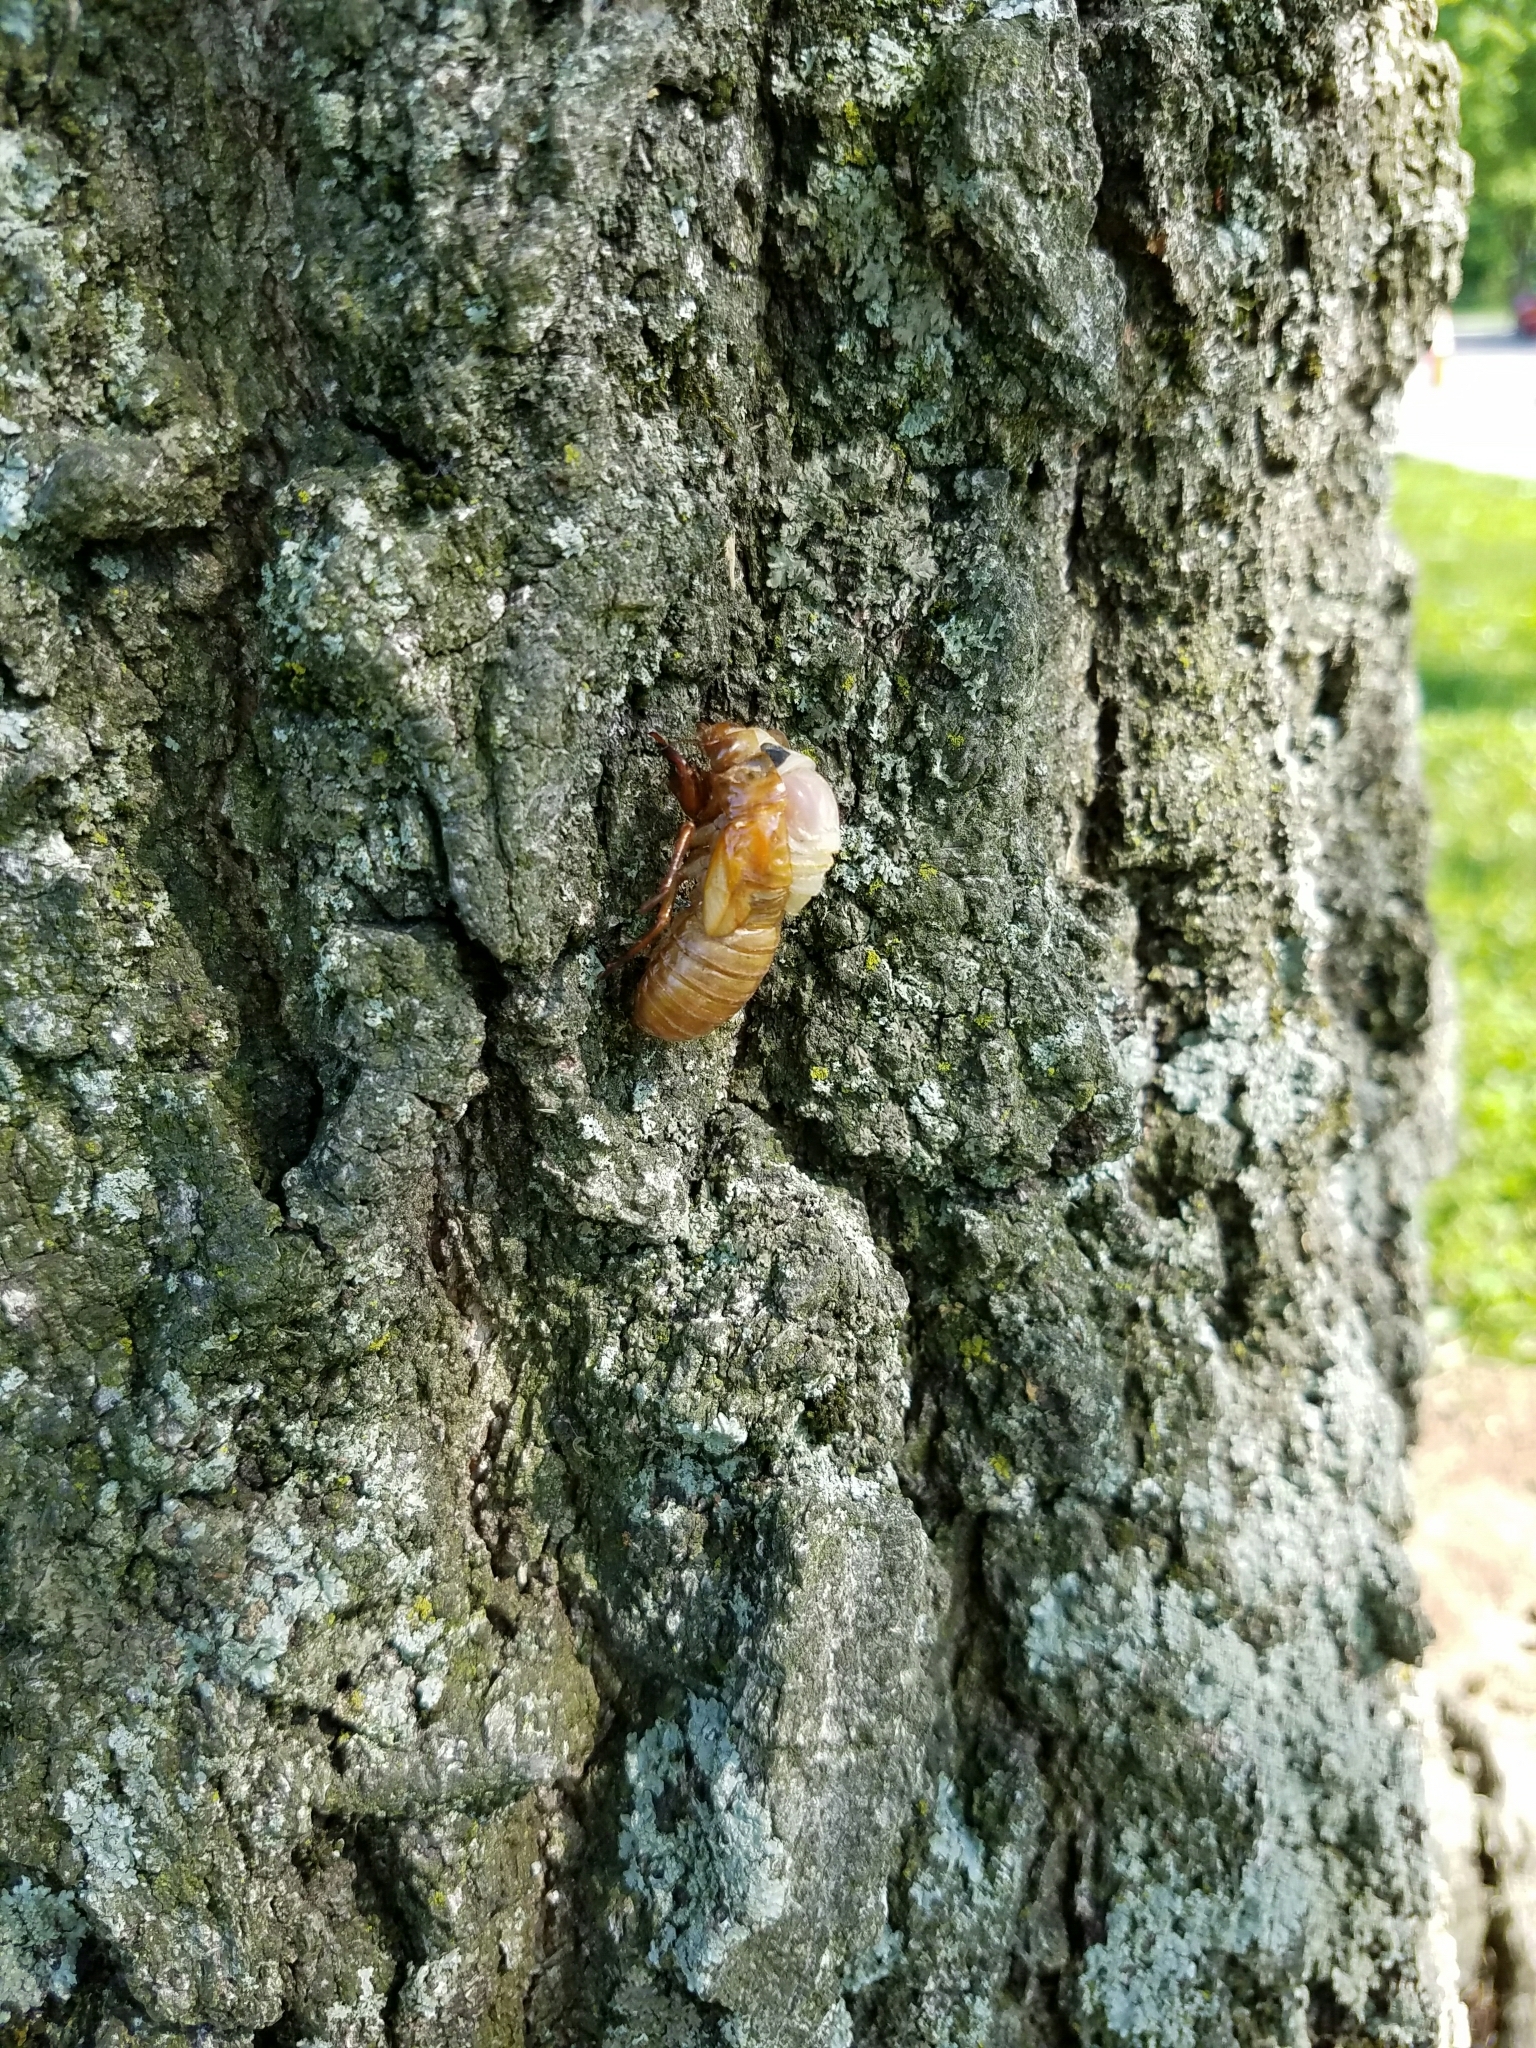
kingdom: Animalia
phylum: Arthropoda
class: Insecta
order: Hemiptera
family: Cicadidae
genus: Magicicada
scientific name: Magicicada
